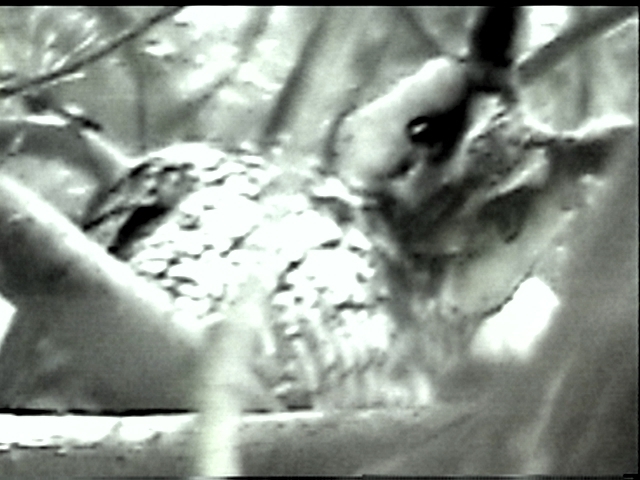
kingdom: Animalia
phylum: Chordata
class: Aves
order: Strigiformes
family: Strigidae
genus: Asio
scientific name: Asio otus
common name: Long-eared owl
